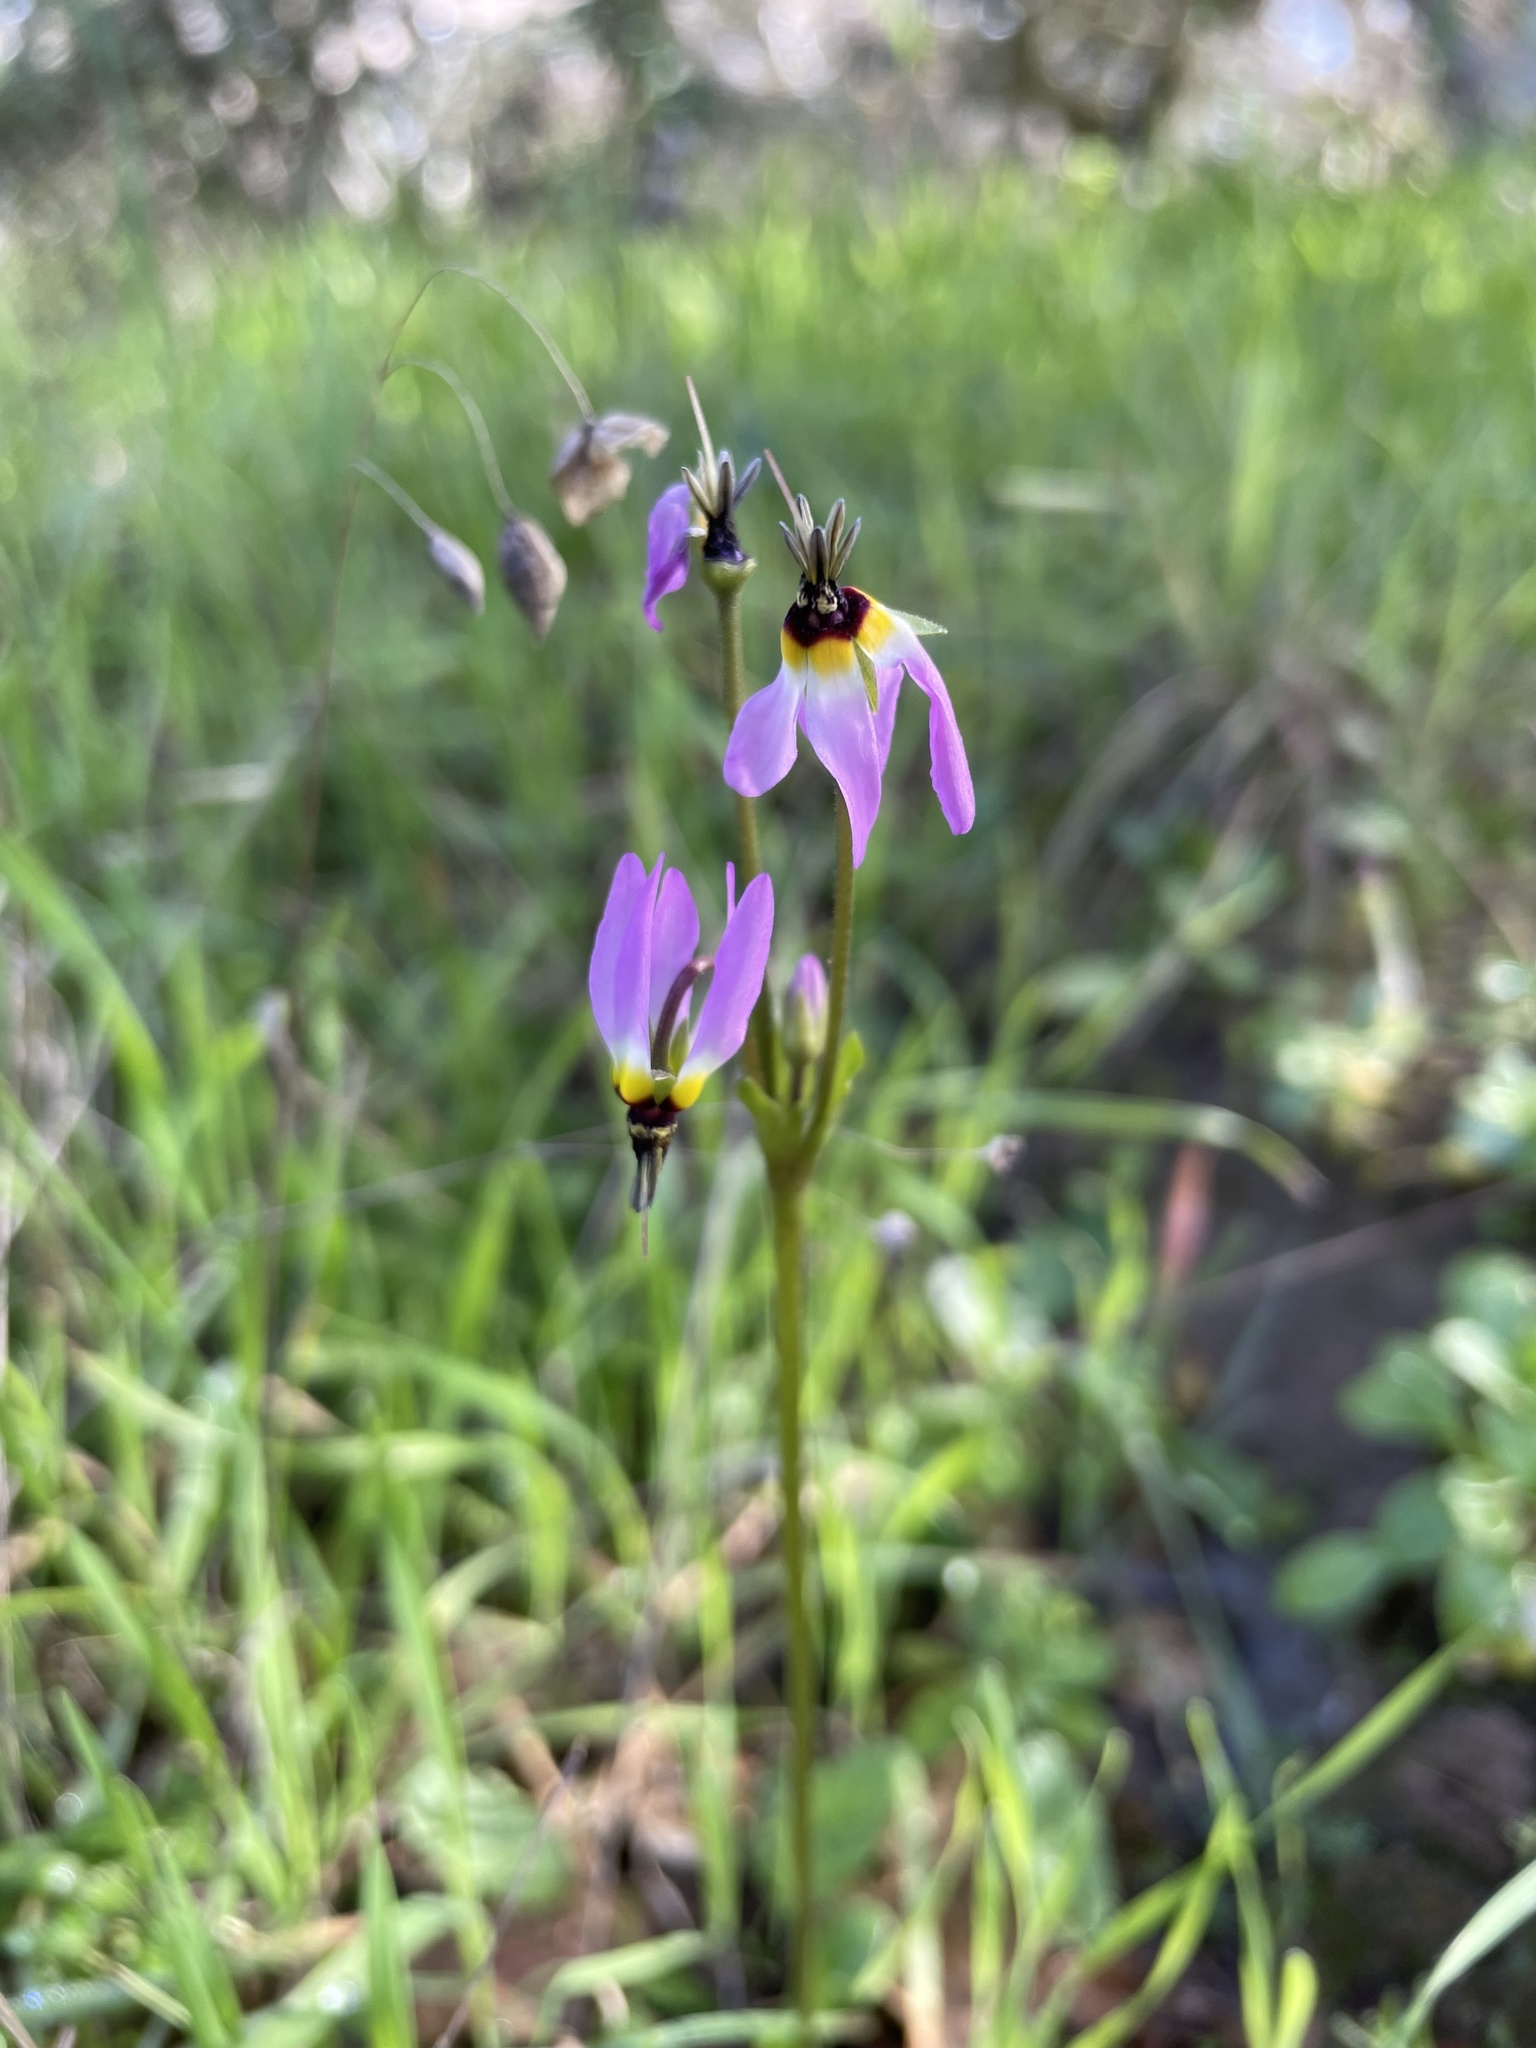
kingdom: Plantae
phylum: Tracheophyta
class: Magnoliopsida
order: Ericales
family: Primulaceae
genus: Dodecatheon
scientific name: Dodecatheon clevelandii
